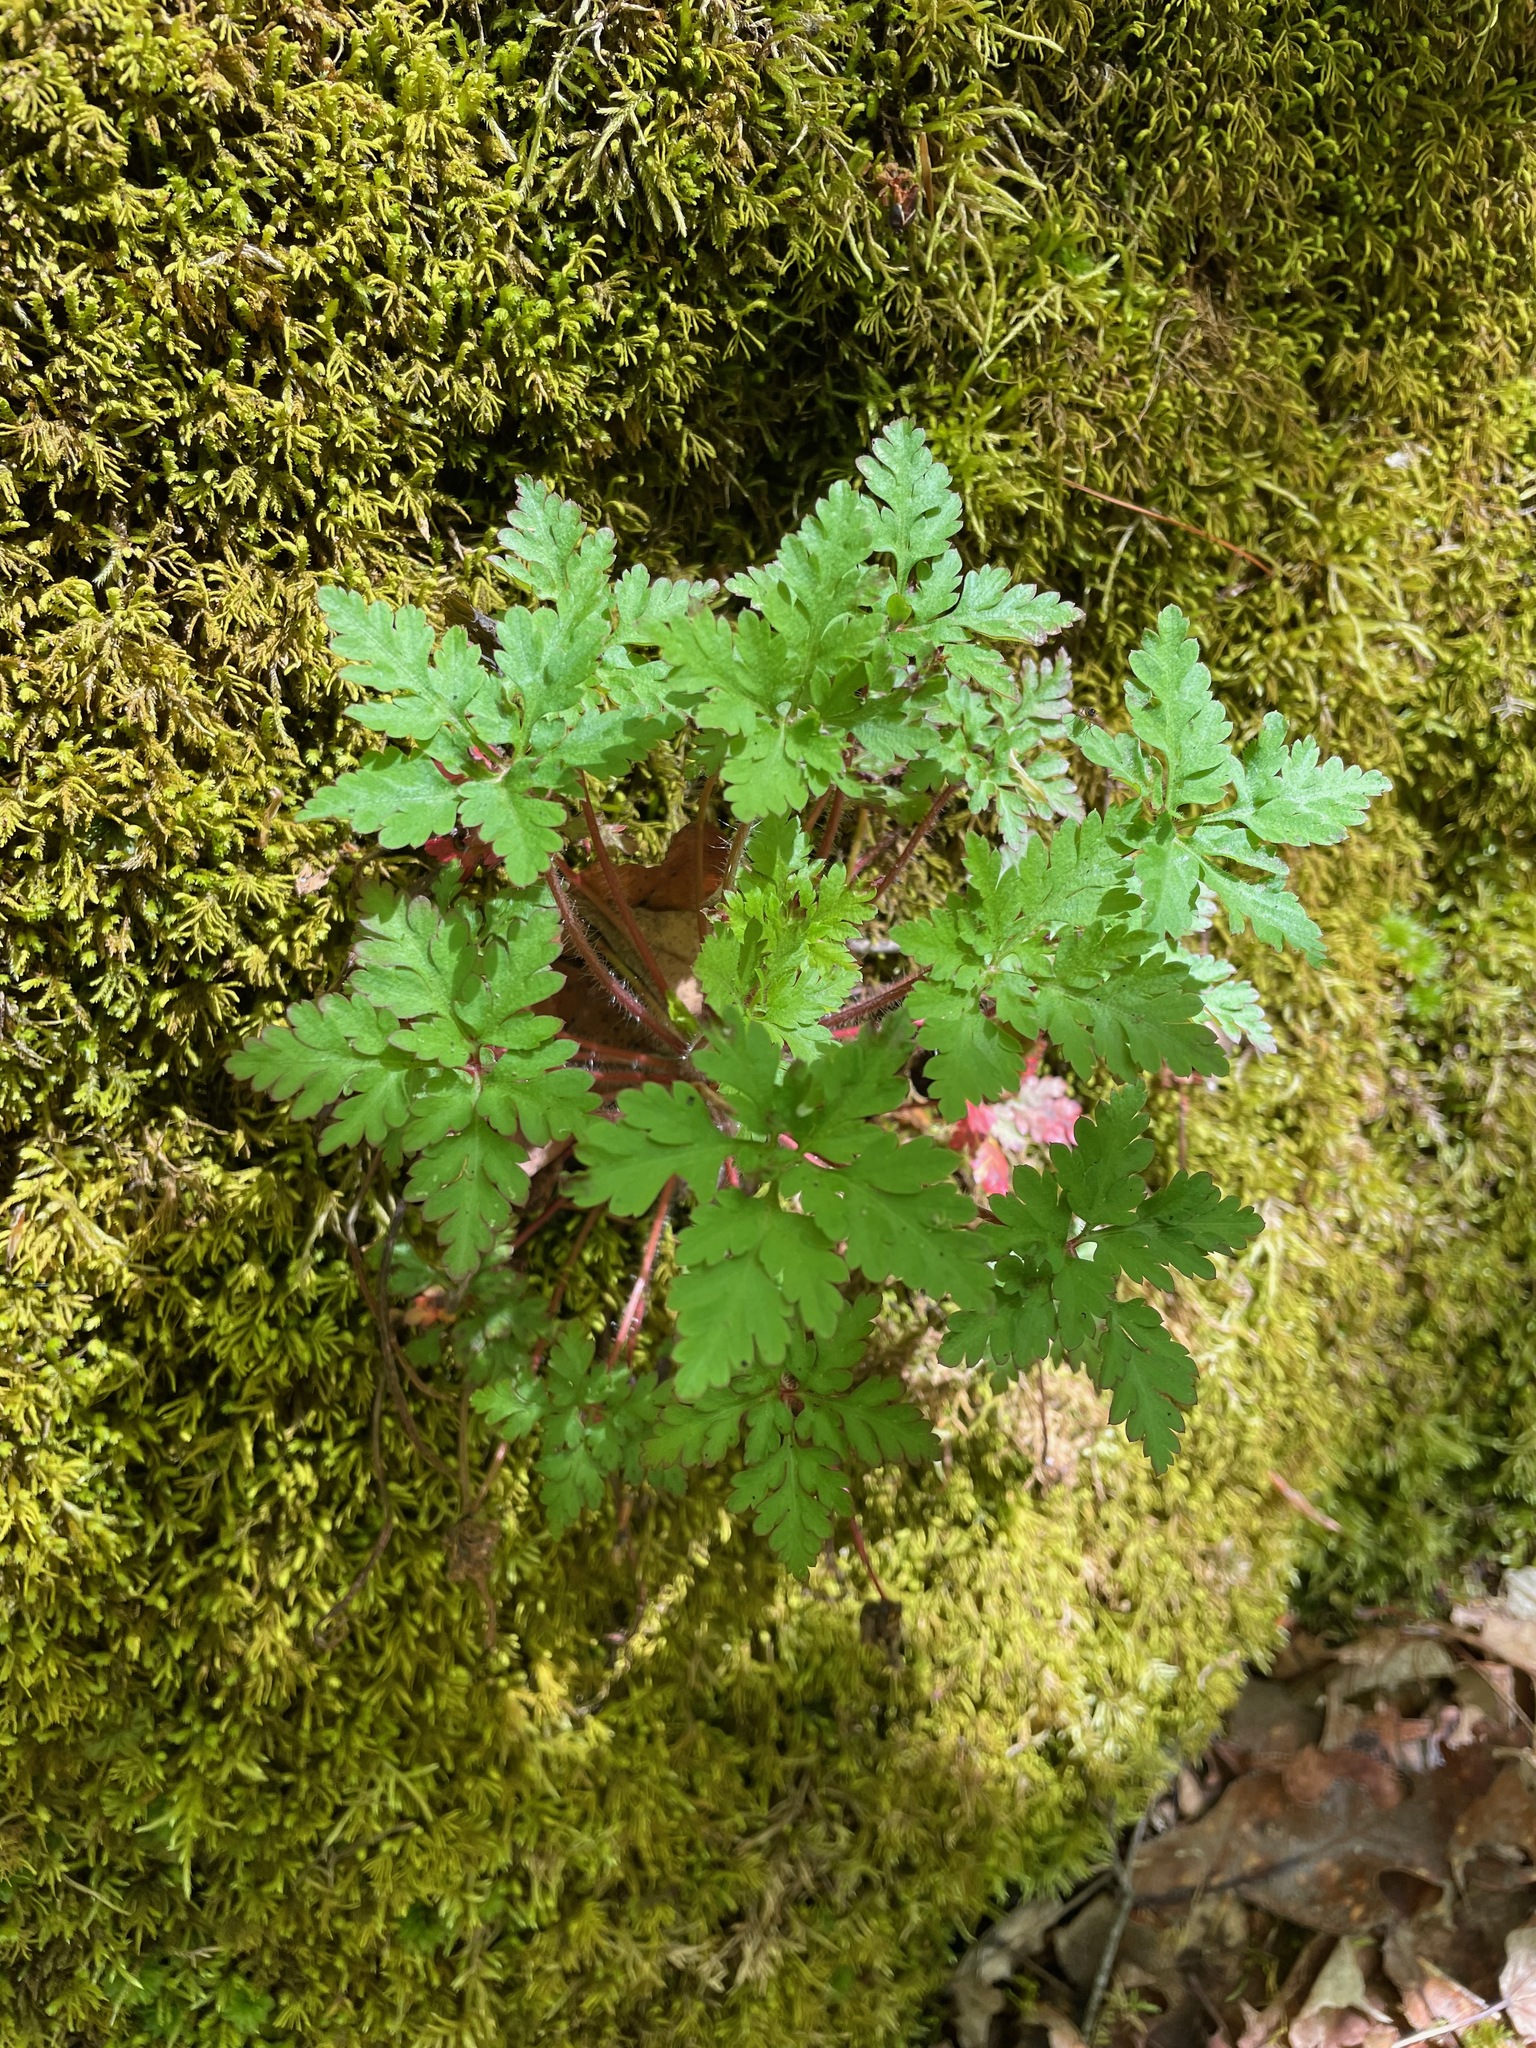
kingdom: Plantae
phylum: Tracheophyta
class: Magnoliopsida
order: Geraniales
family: Geraniaceae
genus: Geranium
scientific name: Geranium robertianum
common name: Herb-robert
